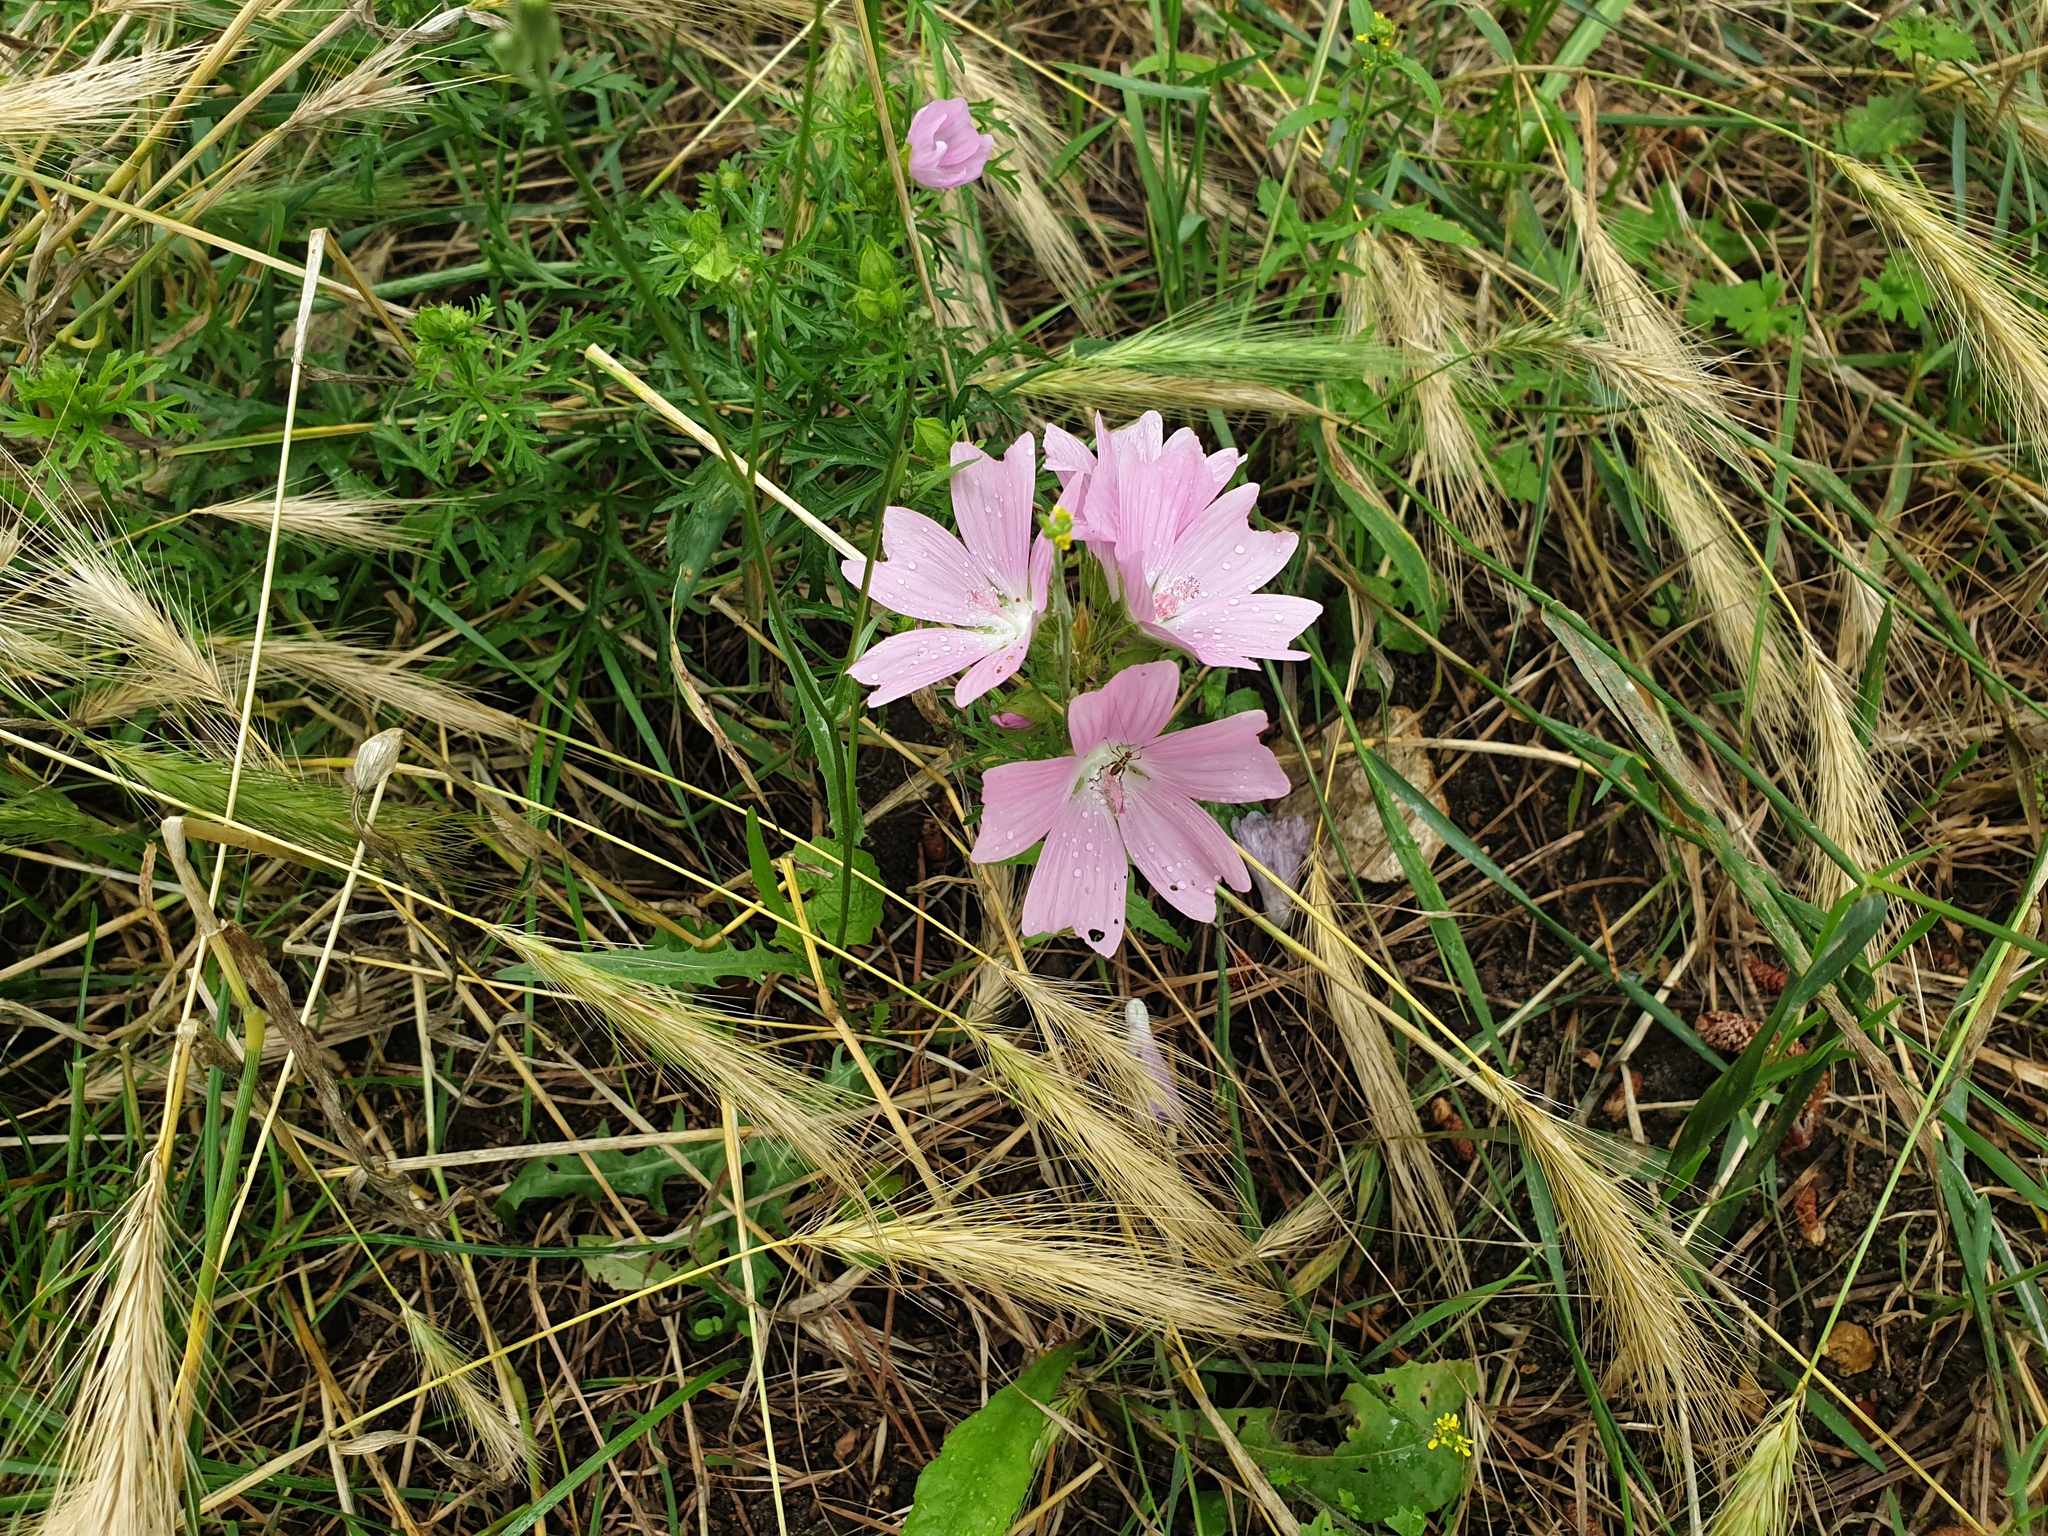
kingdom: Plantae
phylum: Tracheophyta
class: Magnoliopsida
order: Malvales
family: Malvaceae
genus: Malva
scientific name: Malva moschata
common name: Musk mallow
